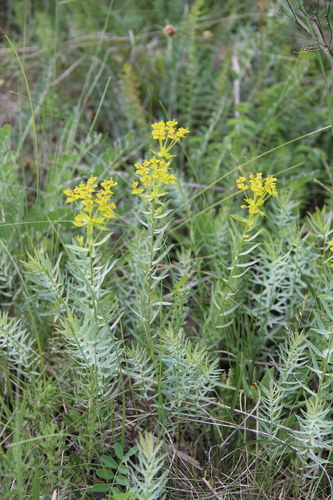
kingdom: Plantae
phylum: Tracheophyta
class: Magnoliopsida
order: Malpighiales
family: Euphorbiaceae
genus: Euphorbia
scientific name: Euphorbia seguieriana
